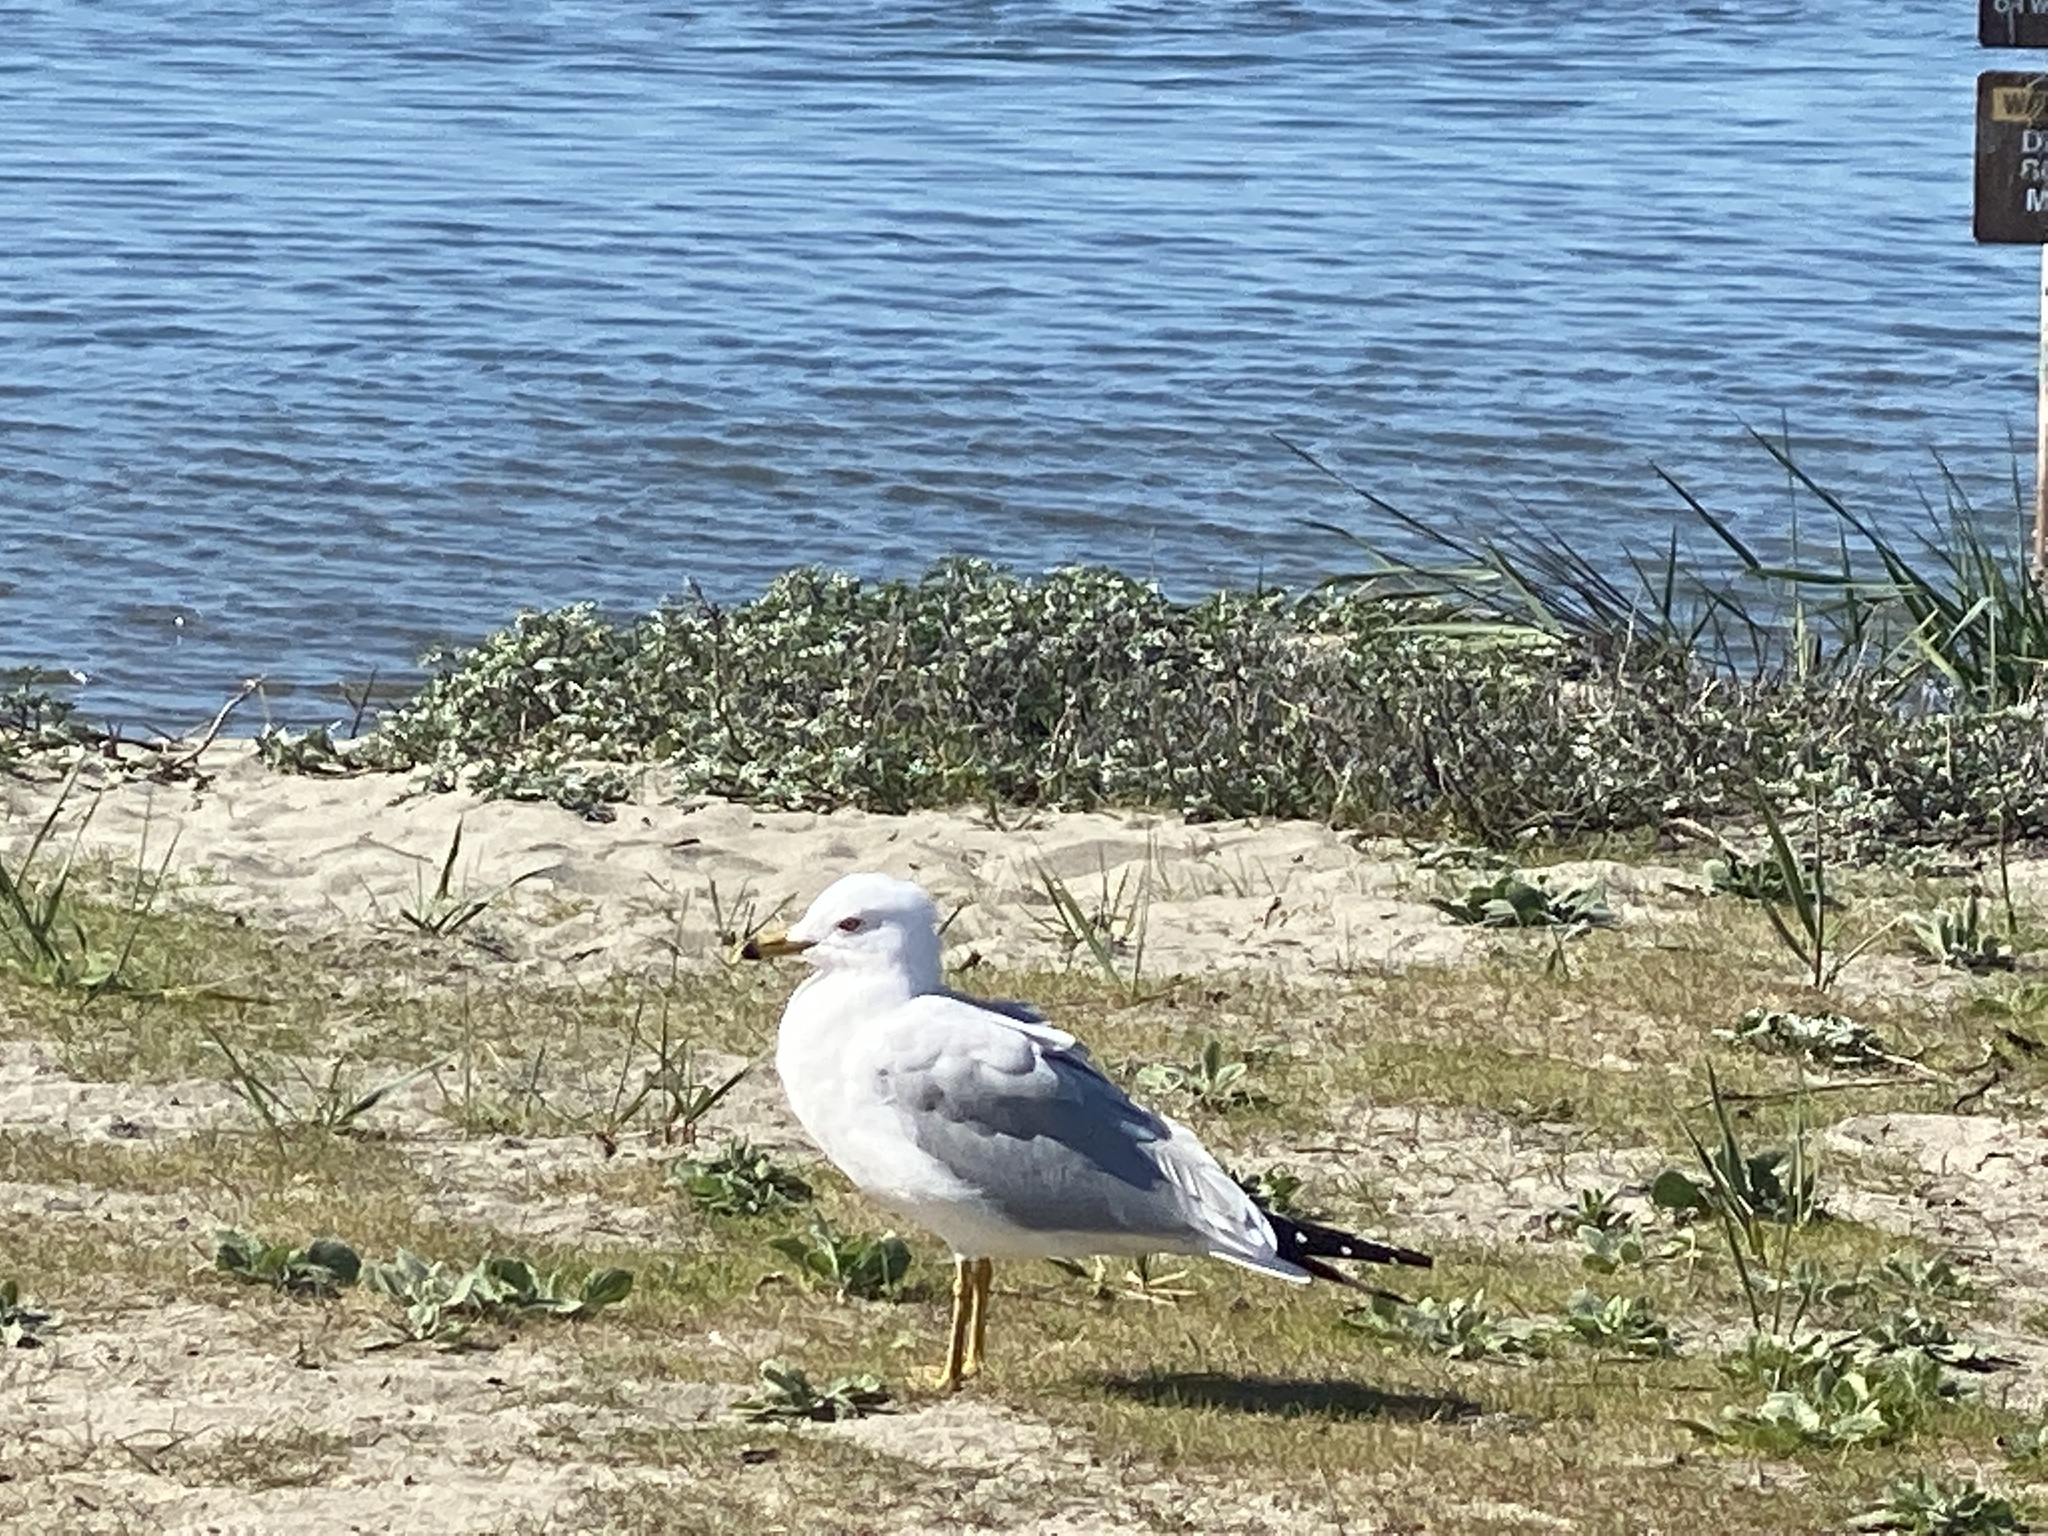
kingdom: Animalia
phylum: Chordata
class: Aves
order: Charadriiformes
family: Laridae
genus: Larus
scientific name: Larus delawarensis
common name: Ring-billed gull
